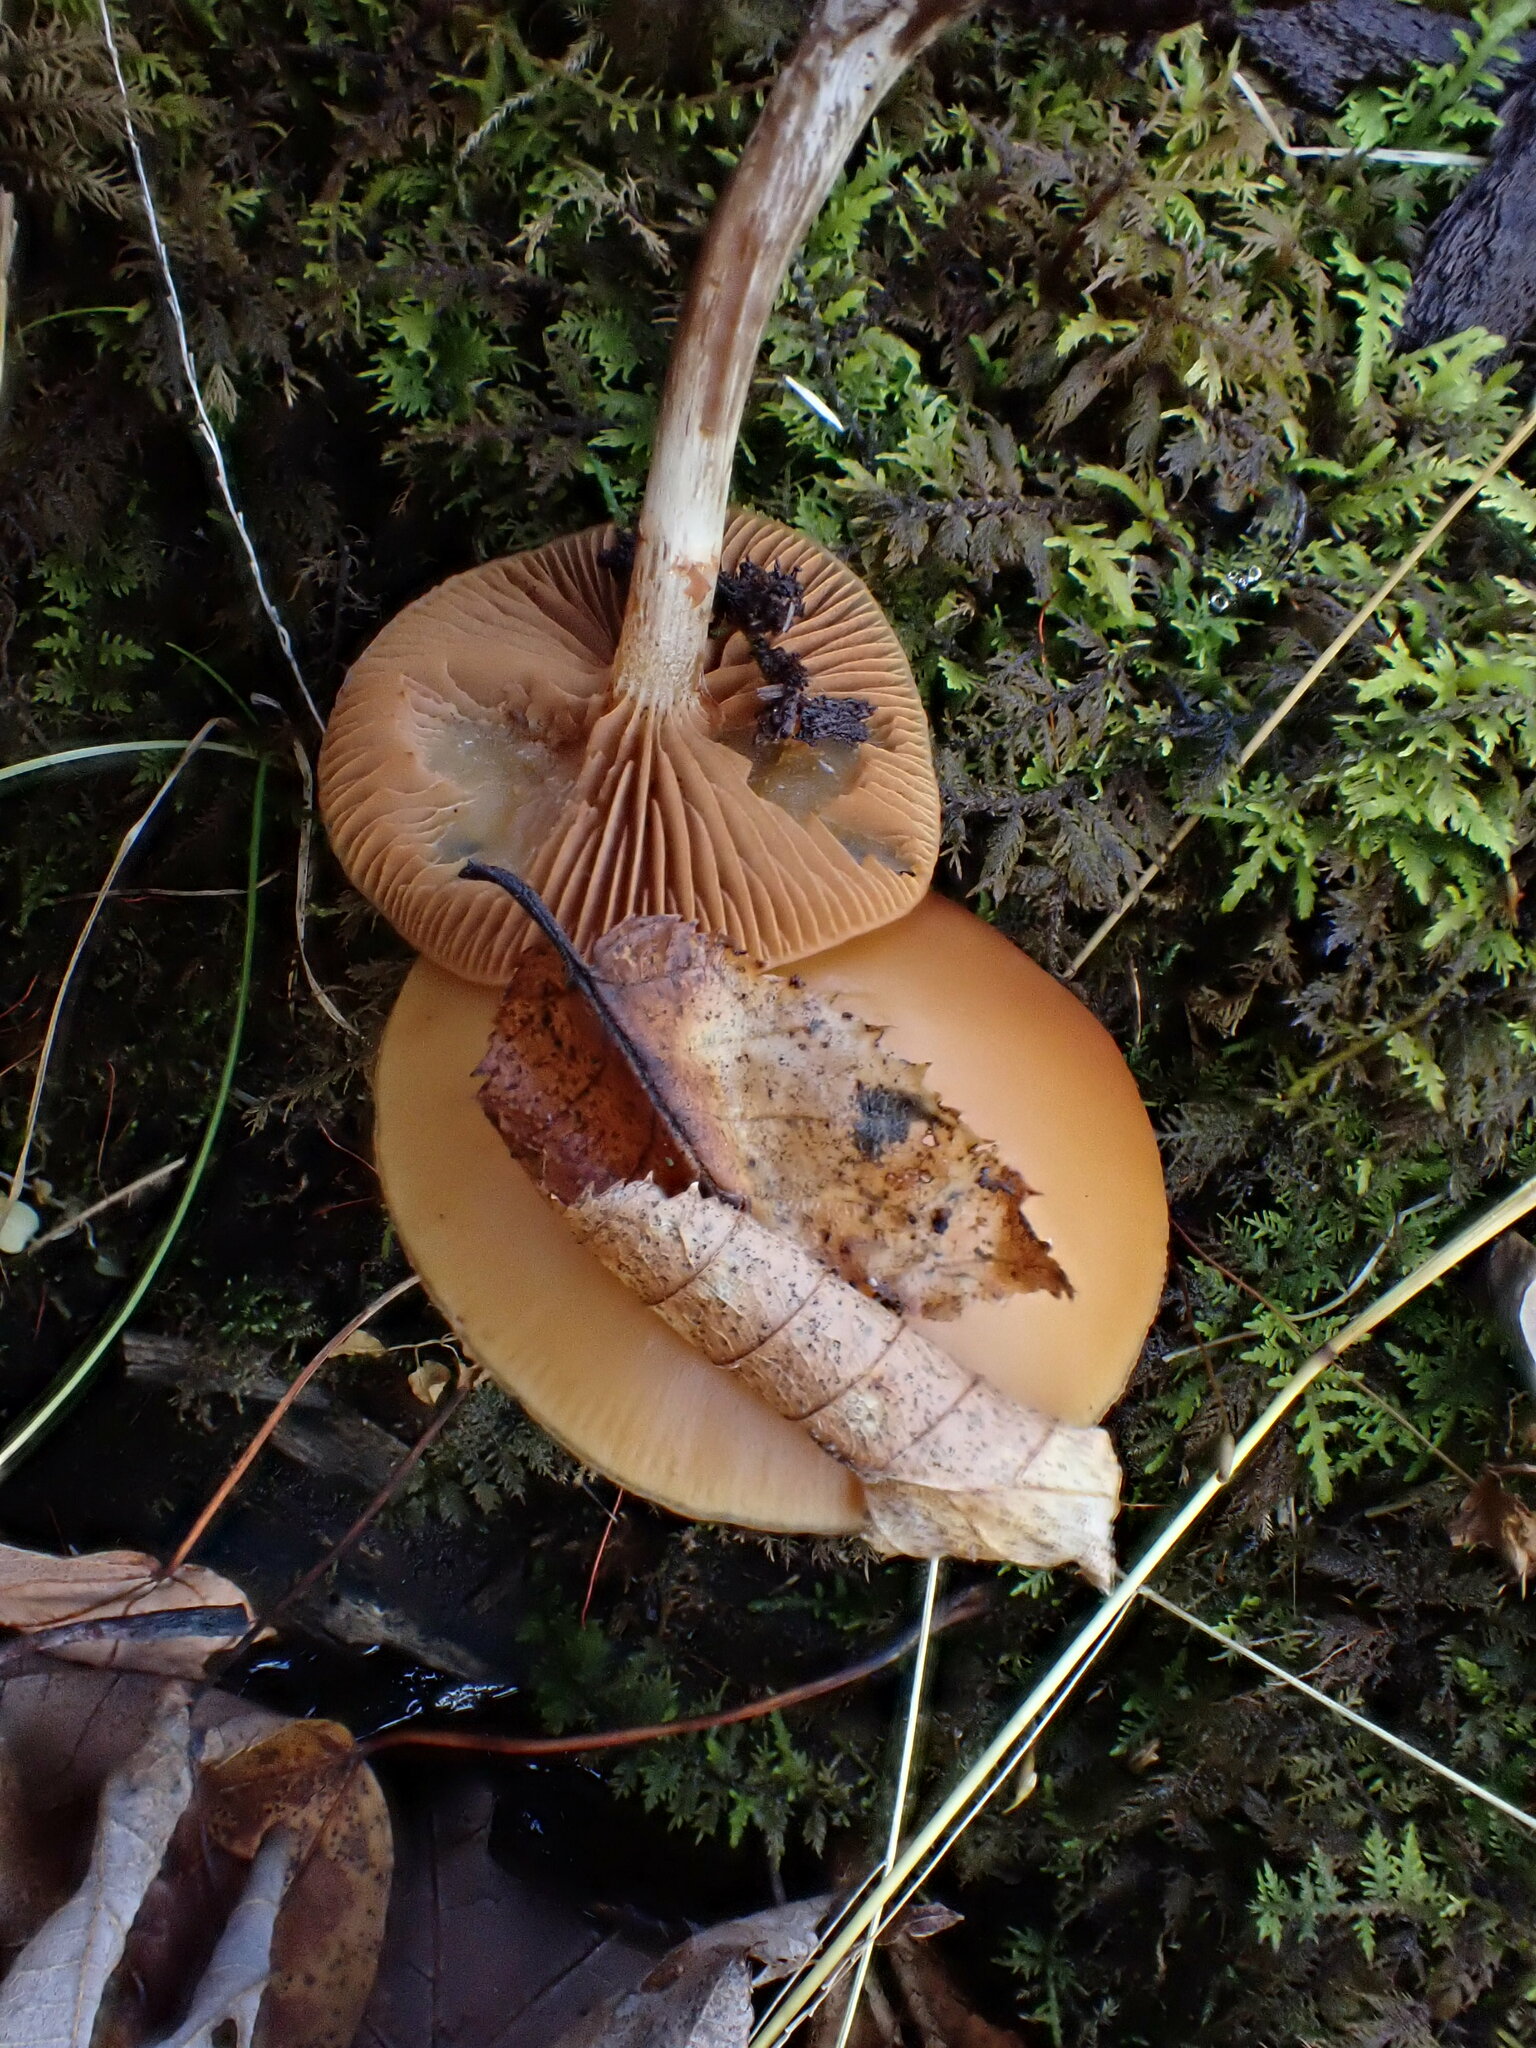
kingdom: Fungi
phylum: Basidiomycota
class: Agaricomycetes
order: Agaricales
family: Hymenogastraceae
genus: Galerina
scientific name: Galerina marginata
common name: Funeral bell
